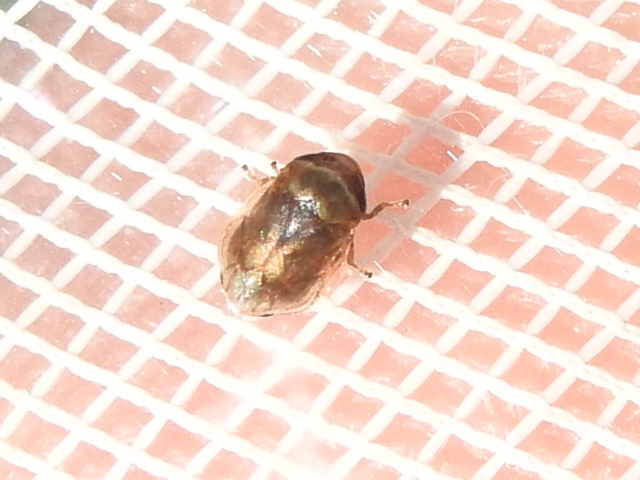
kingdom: Animalia
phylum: Arthropoda
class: Insecta
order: Hemiptera
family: Clastopteridae
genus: Clastoptera
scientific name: Clastoptera xanthocephala
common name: Sunflower spittlebug
